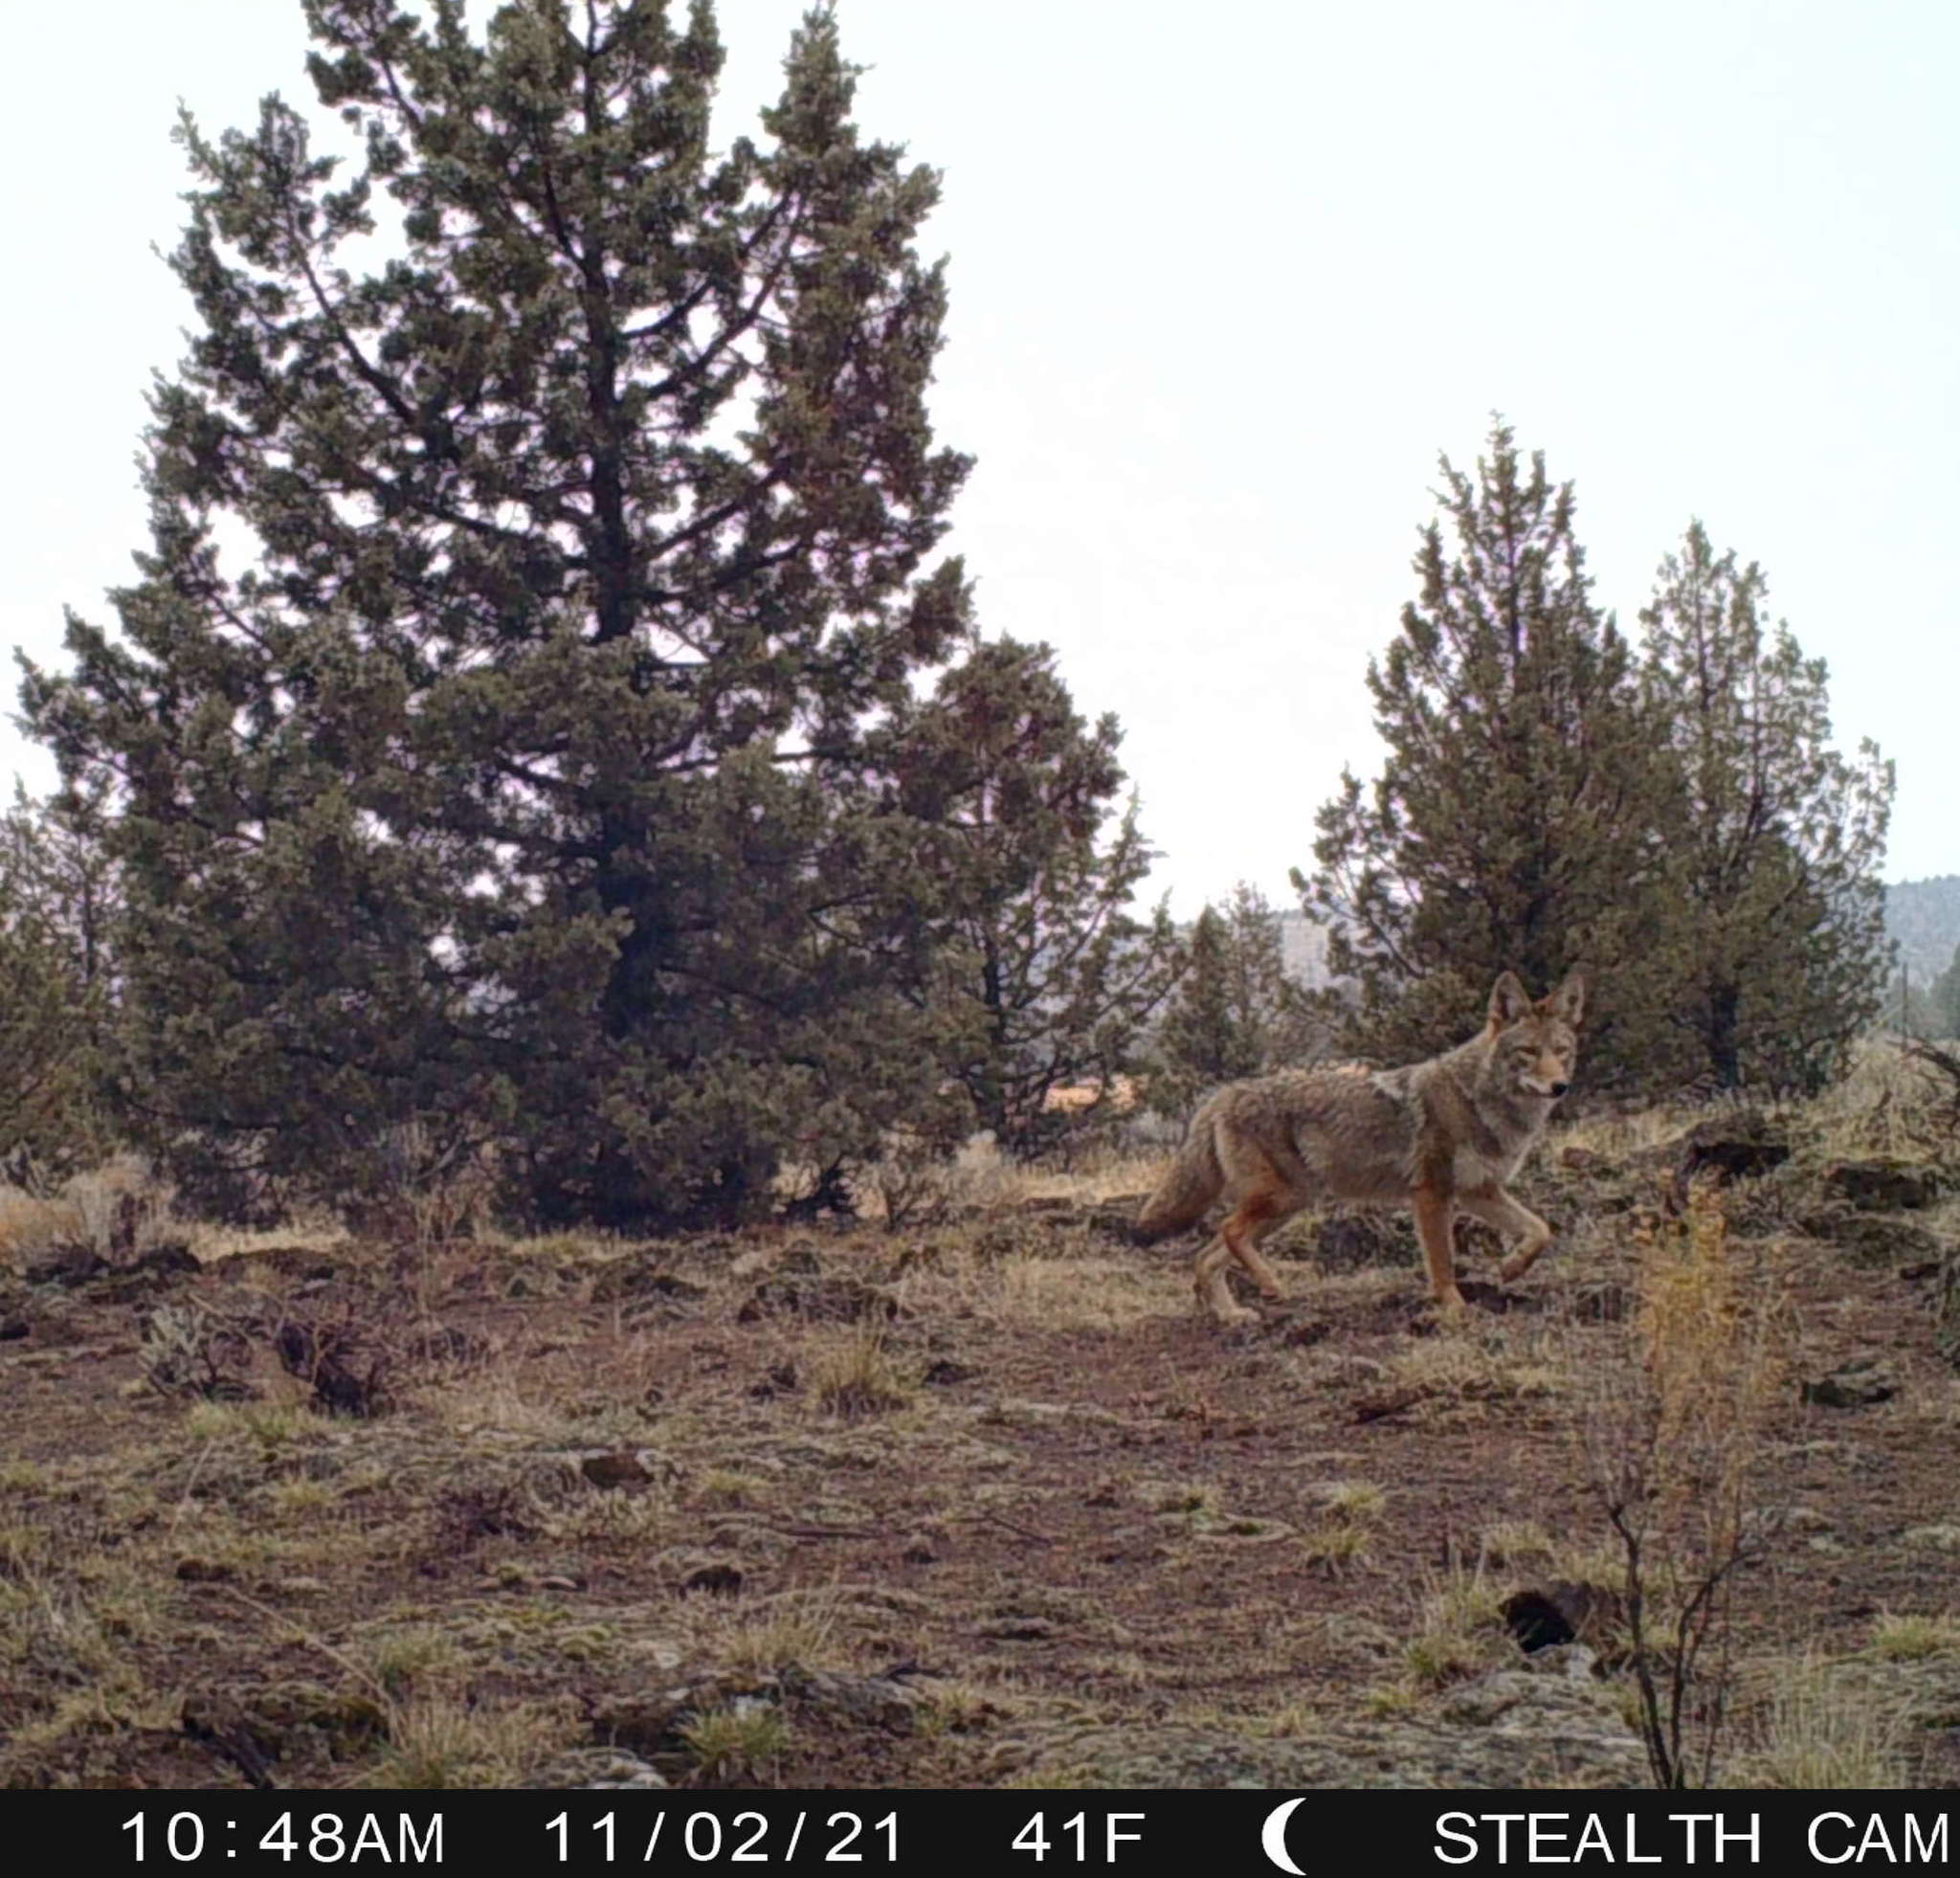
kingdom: Animalia
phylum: Chordata
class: Mammalia
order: Carnivora
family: Canidae
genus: Canis
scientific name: Canis latrans
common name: Coyote
